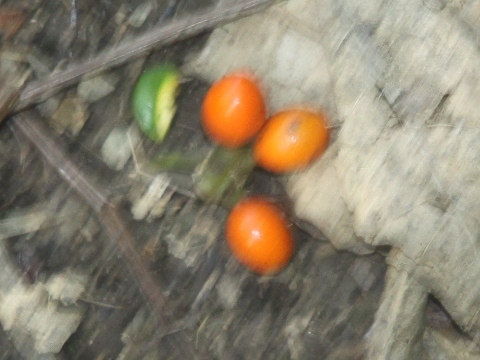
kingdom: Plantae
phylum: Tracheophyta
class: Magnoliopsida
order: Laurales
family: Monimiaceae
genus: Hedycarya
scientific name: Hedycarya arborea
